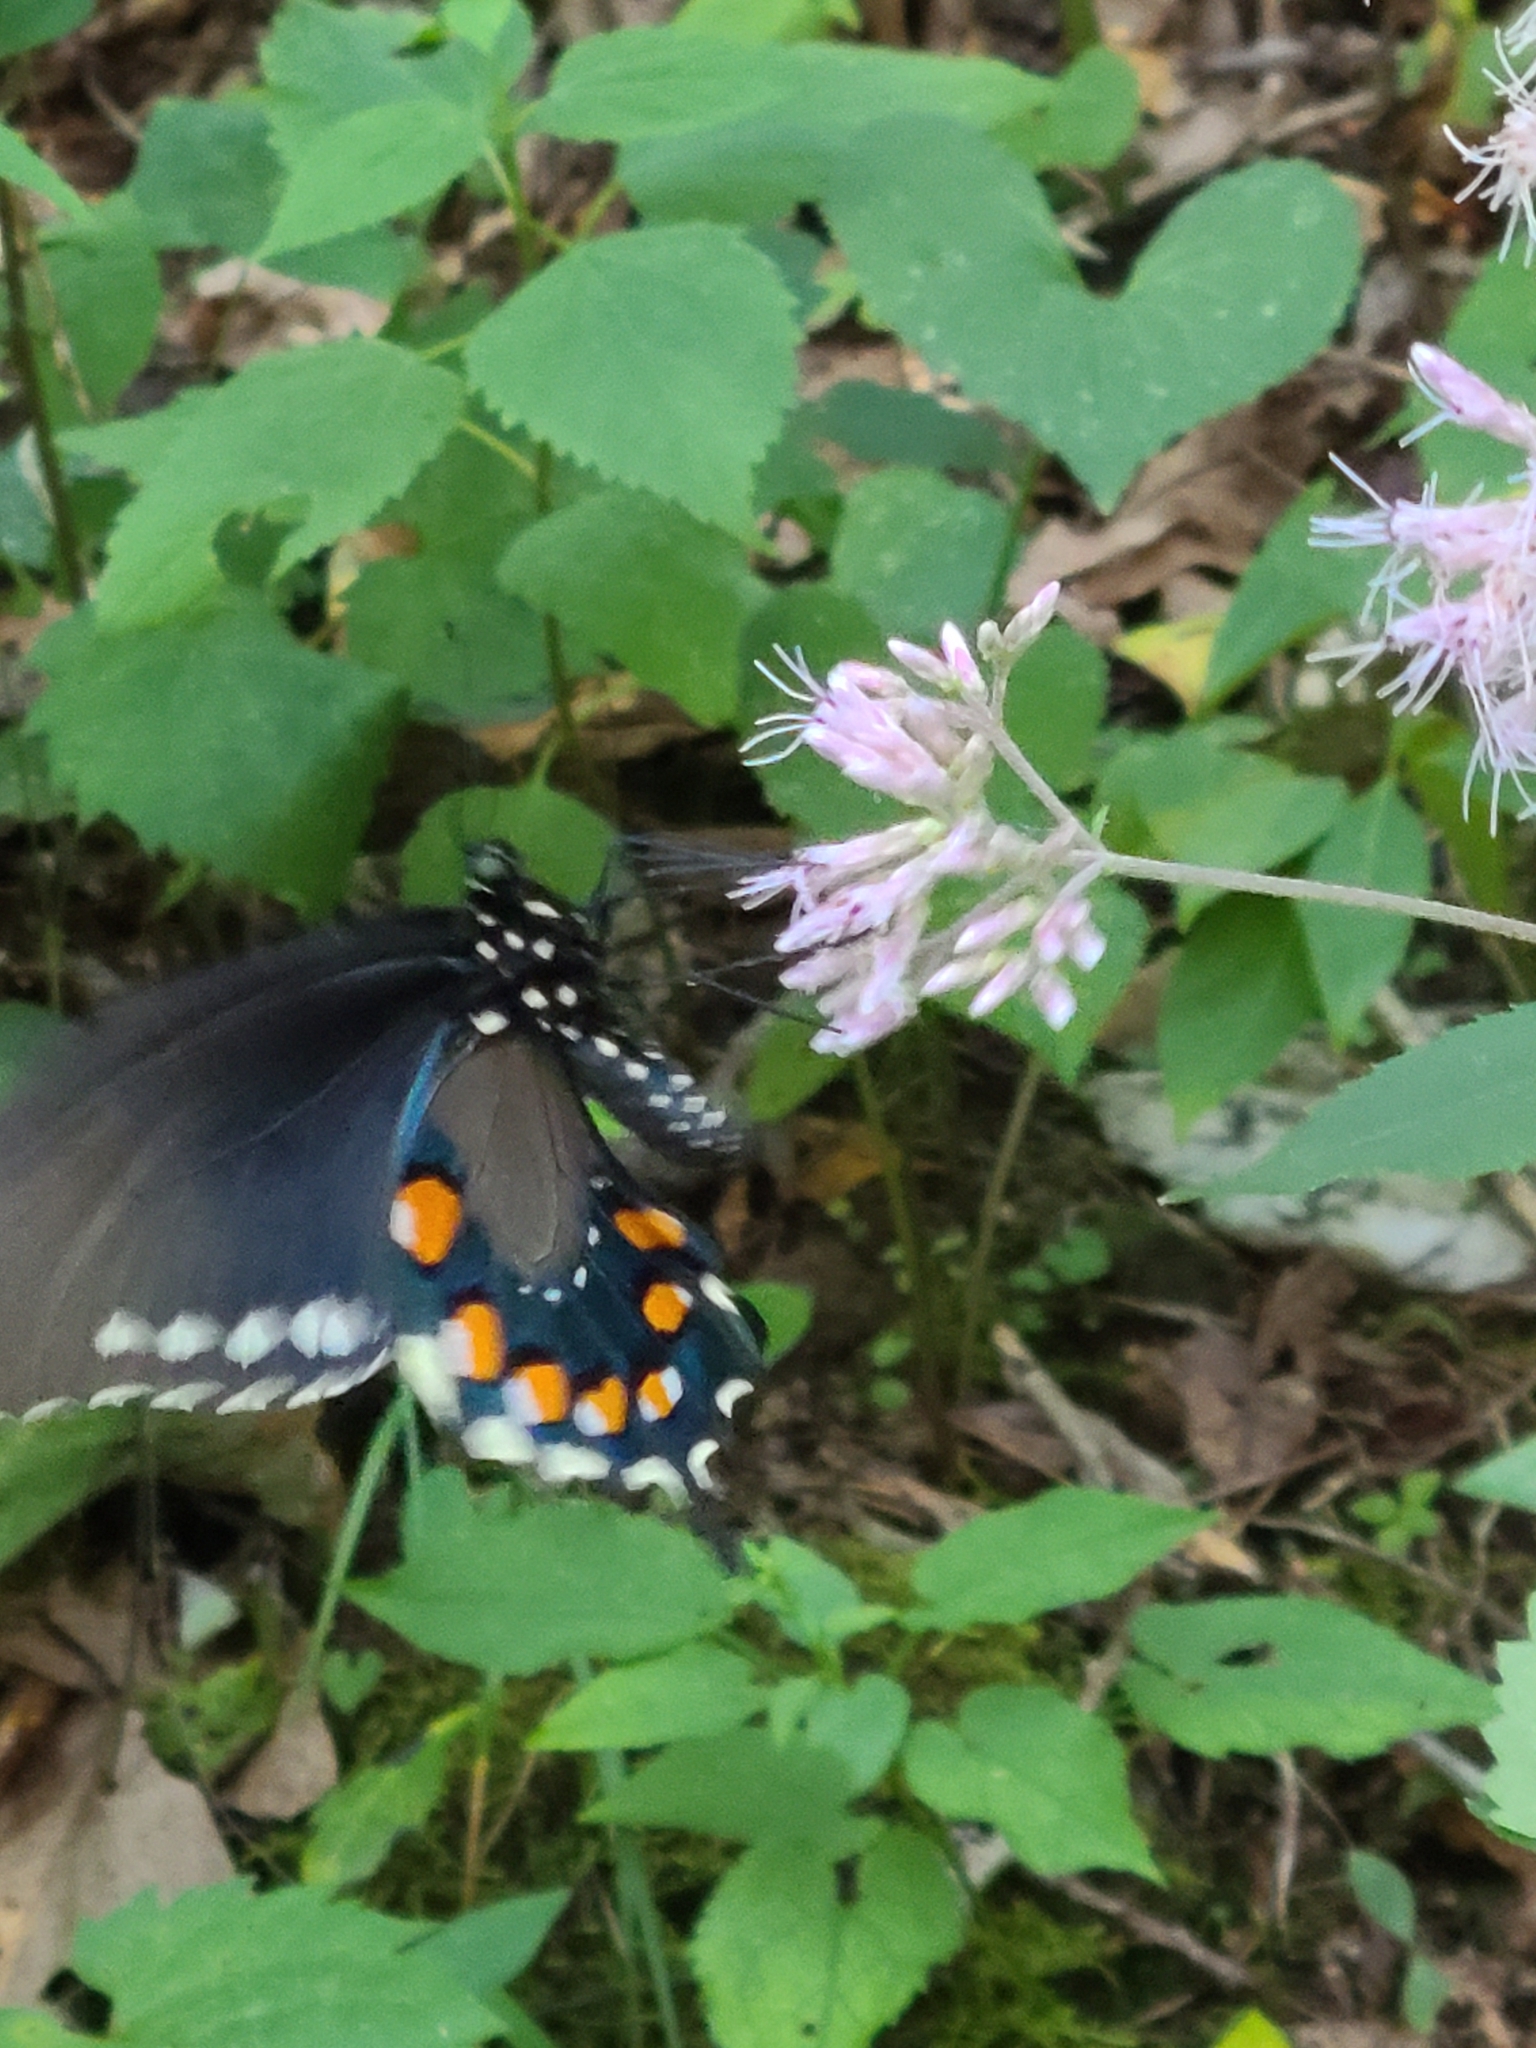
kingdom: Animalia
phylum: Arthropoda
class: Insecta
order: Lepidoptera
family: Papilionidae
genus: Battus
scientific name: Battus philenor
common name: Pipevine swallowtail
